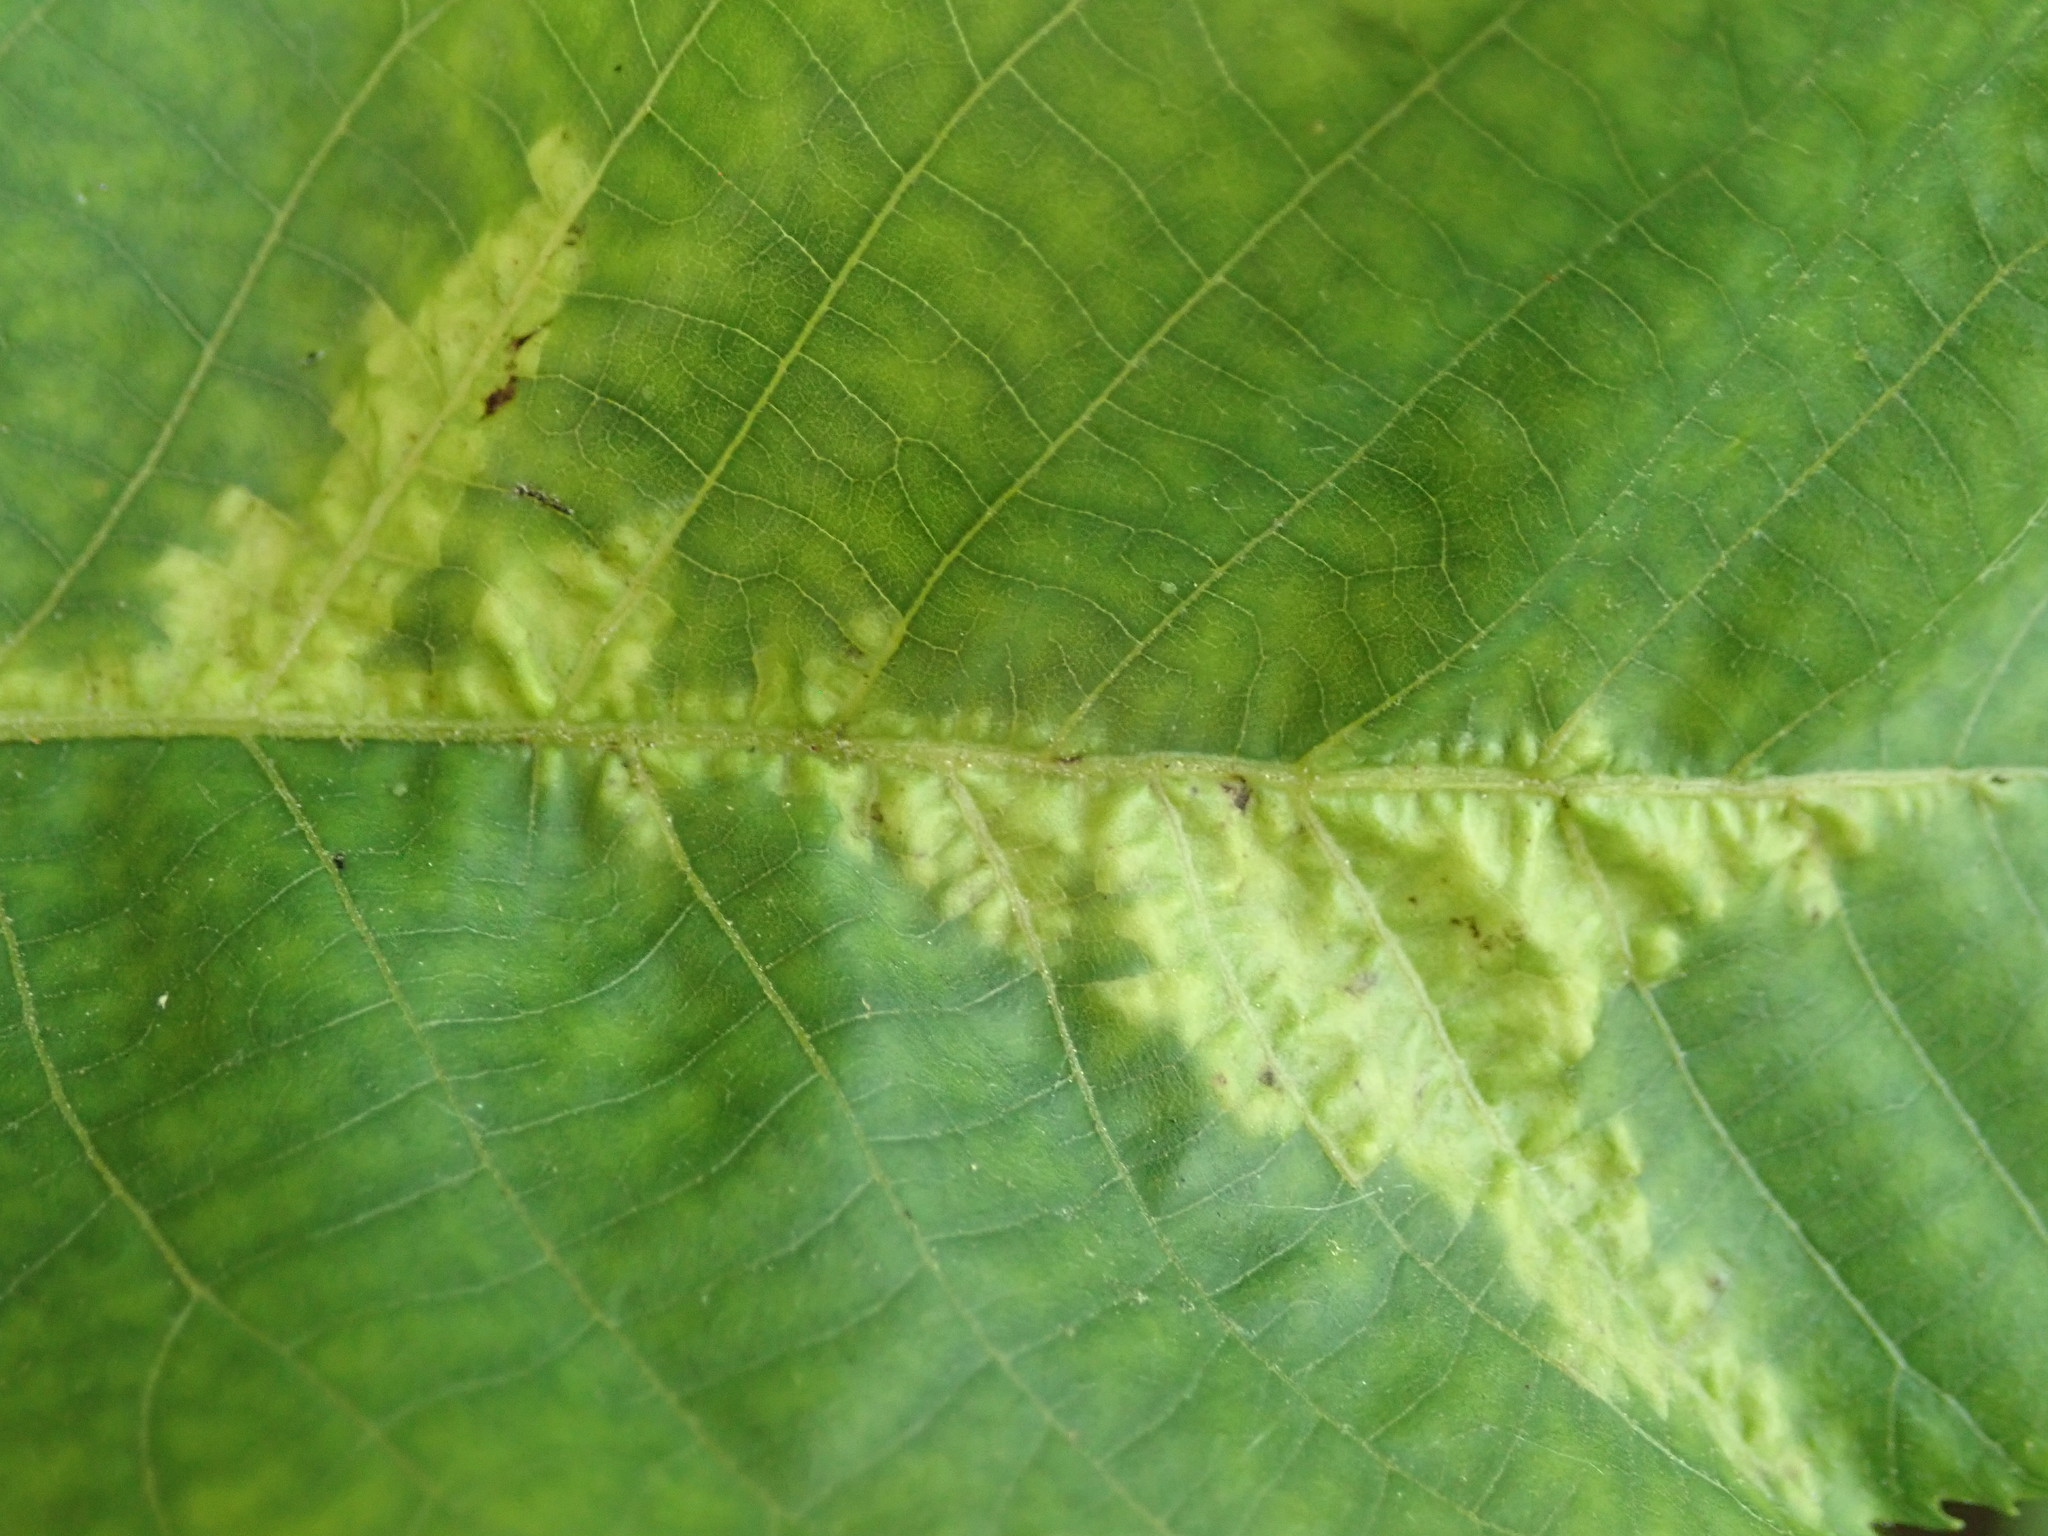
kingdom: Fungi
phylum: Basidiomycota
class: Exobasidiomycetes
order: Microstromatales
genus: Pseudomicrostroma
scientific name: Pseudomicrostroma juglandis
